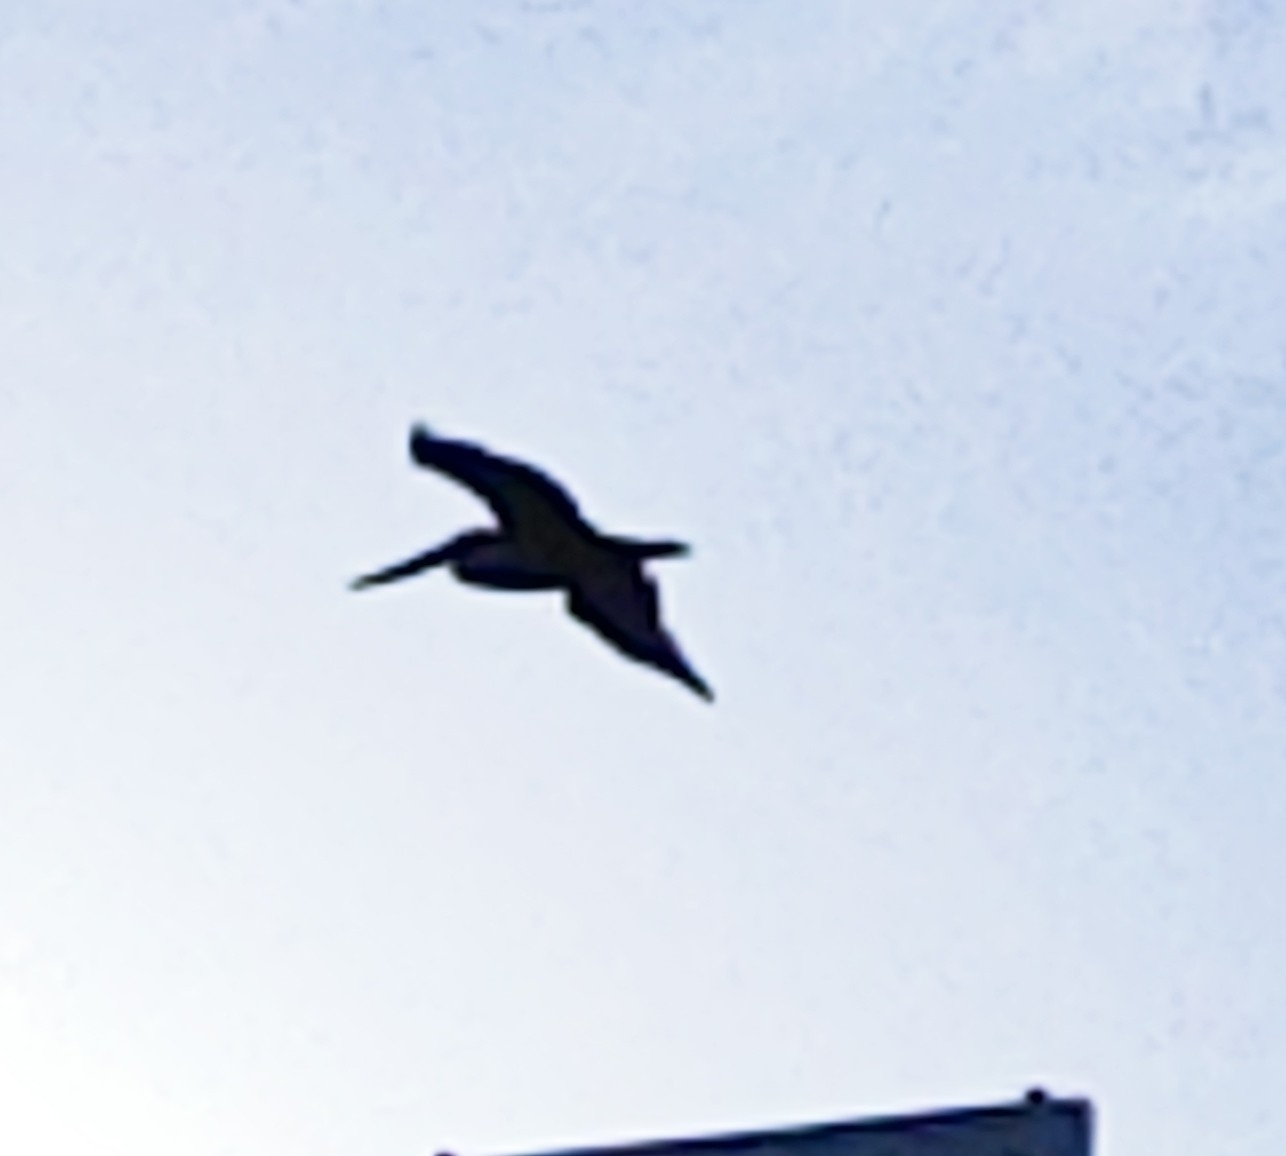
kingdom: Animalia
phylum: Chordata
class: Aves
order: Pelecaniformes
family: Pelecanidae
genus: Pelecanus
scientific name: Pelecanus occidentalis
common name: Brown pelican
